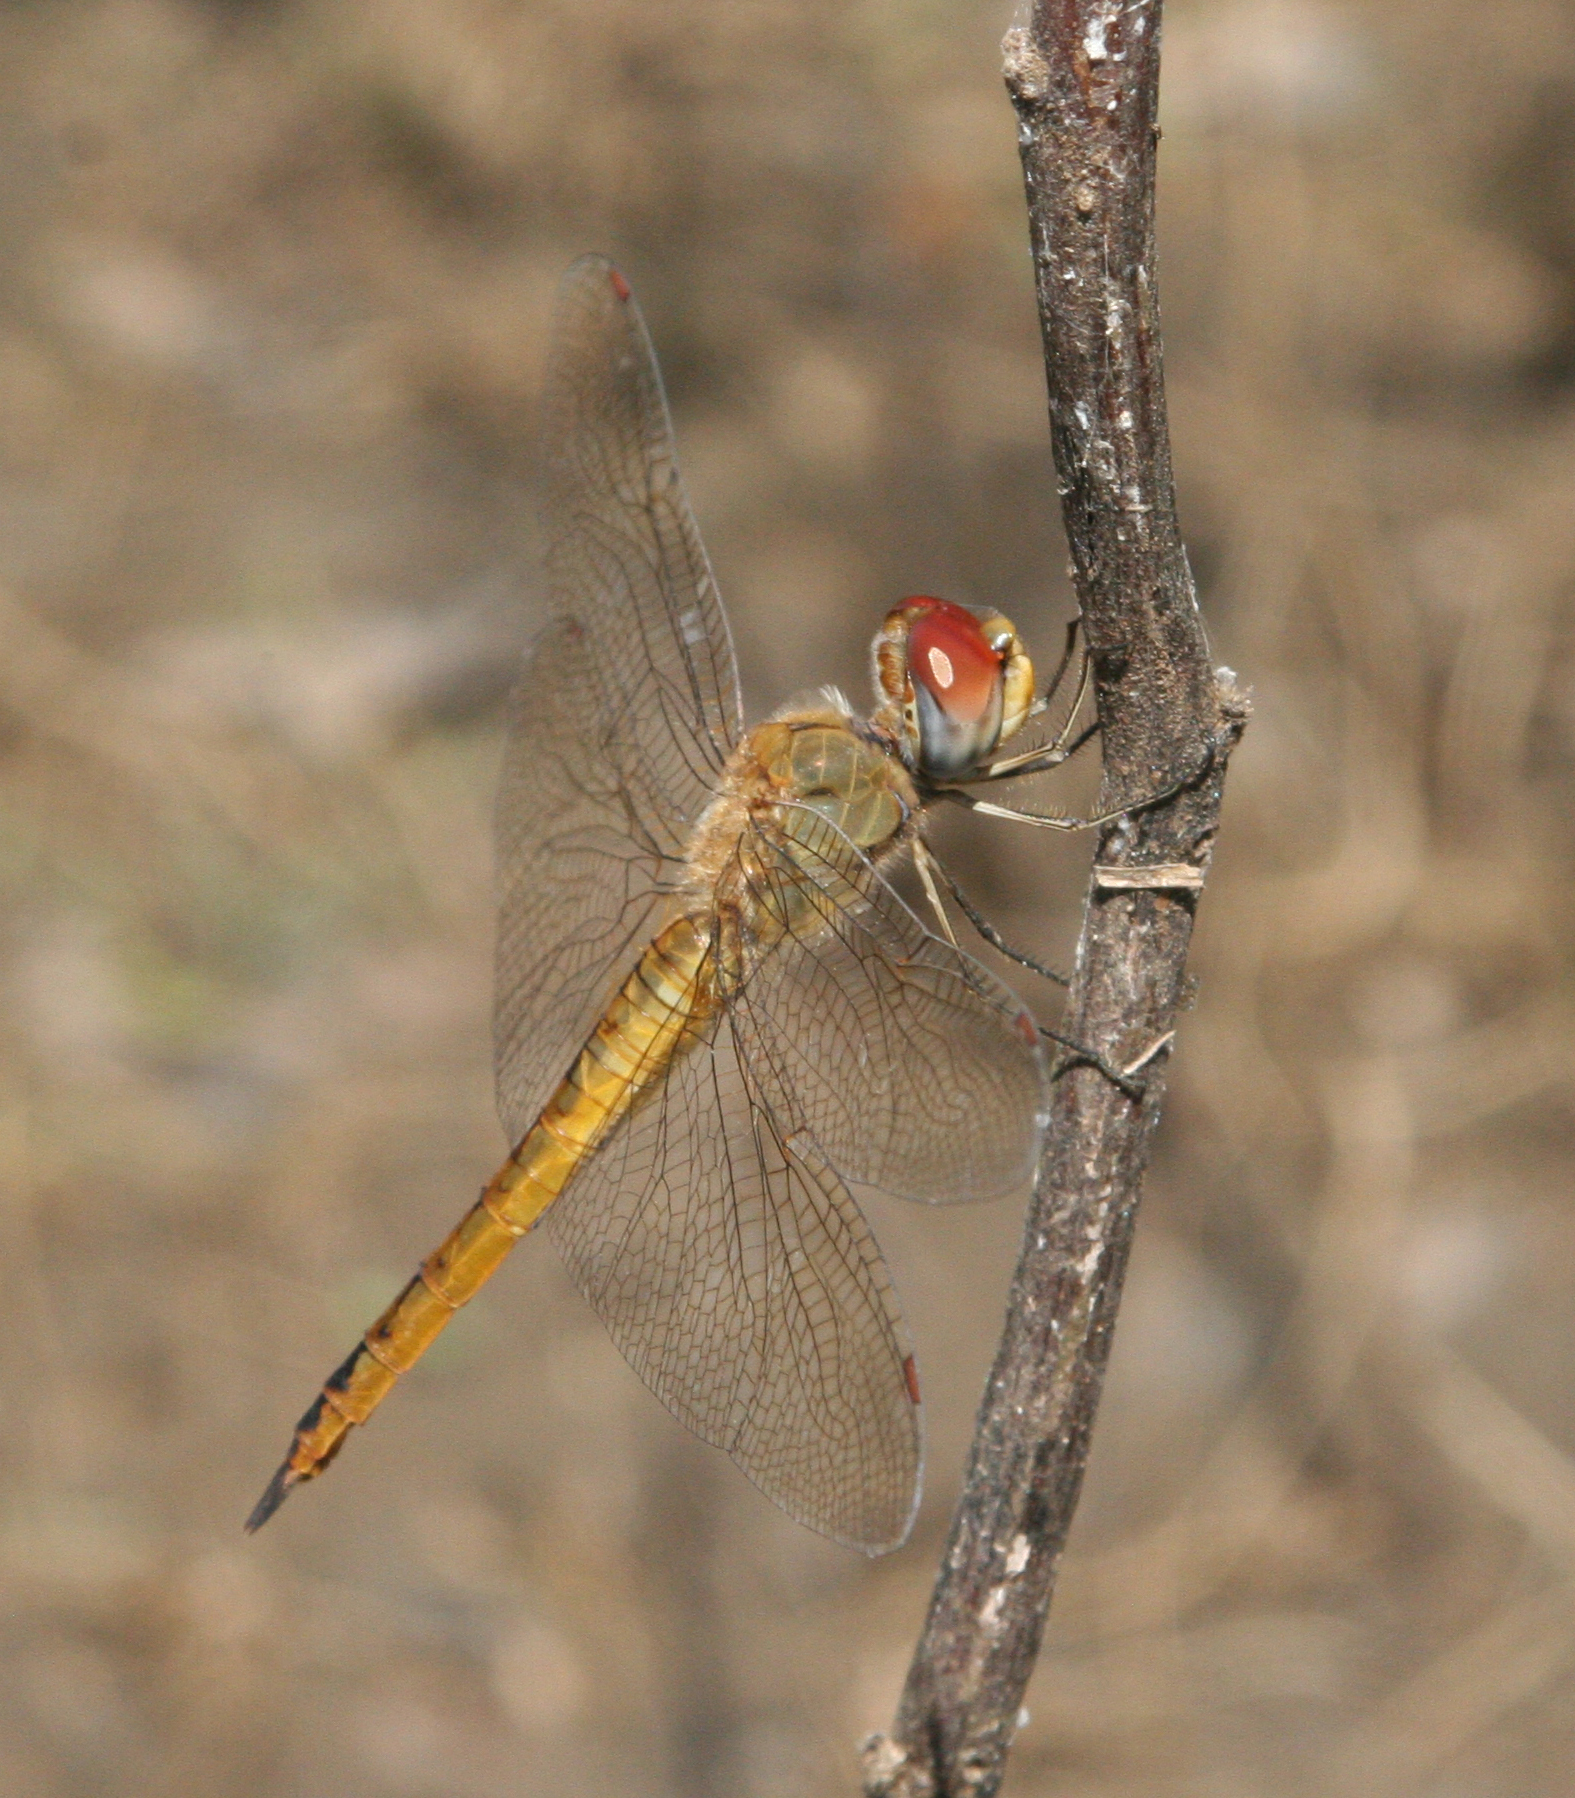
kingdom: Animalia
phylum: Arthropoda
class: Insecta
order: Odonata
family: Libellulidae
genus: Pantala
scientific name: Pantala flavescens
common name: Wandering glider
